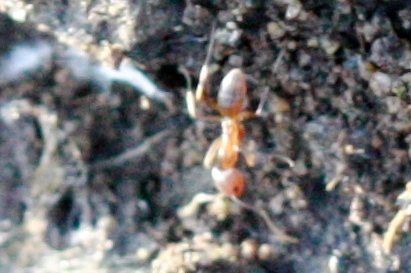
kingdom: Animalia
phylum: Arthropoda
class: Insecta
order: Hymenoptera
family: Formicidae
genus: Linepithema
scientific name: Linepithema humile
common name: Argentine ant
